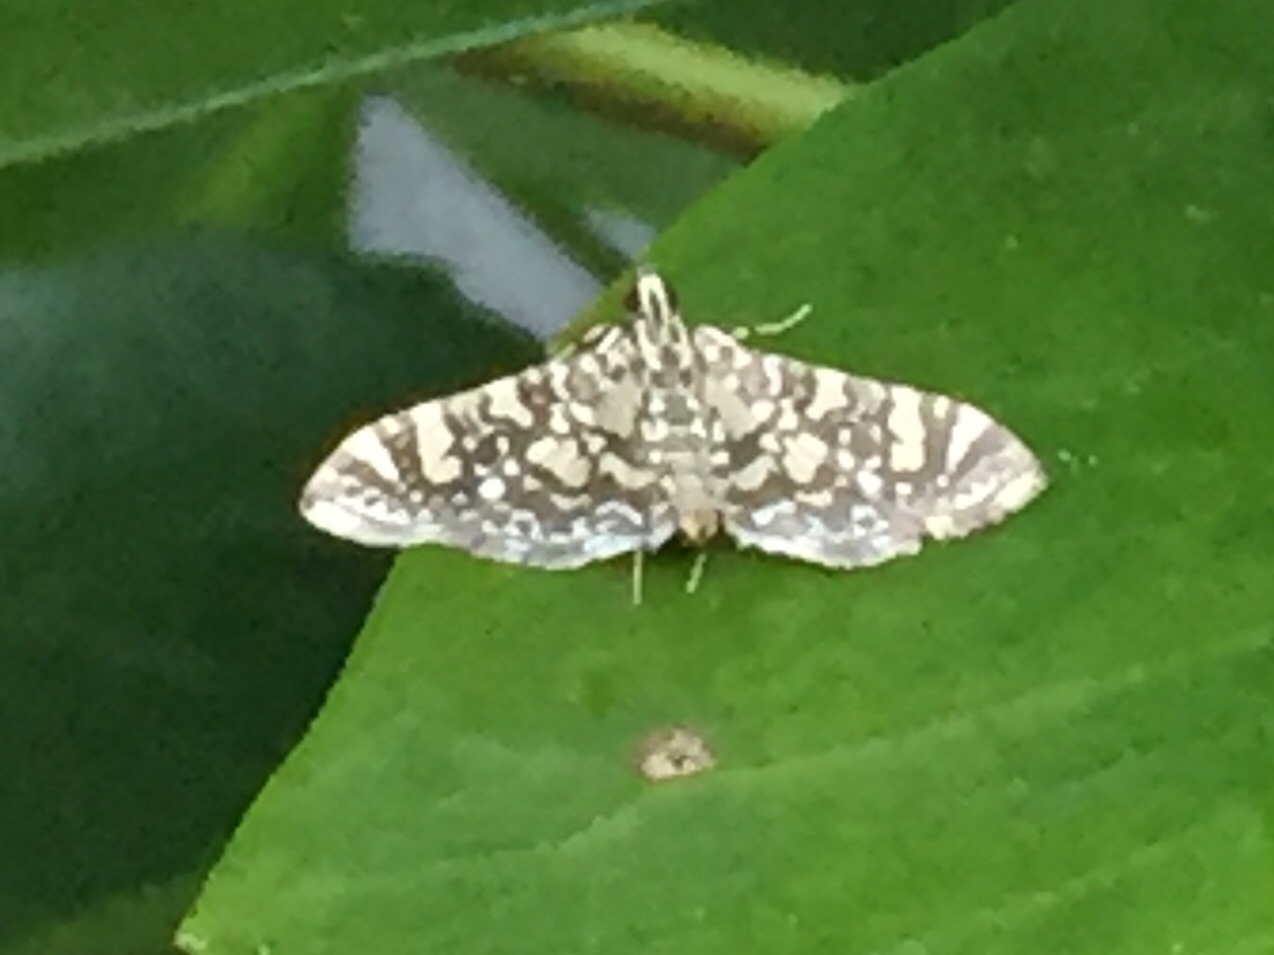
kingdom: Animalia
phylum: Arthropoda
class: Insecta
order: Lepidoptera
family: Crambidae
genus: Glyphodes
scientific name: Glyphodes onychinalis
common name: Swan plant moth
